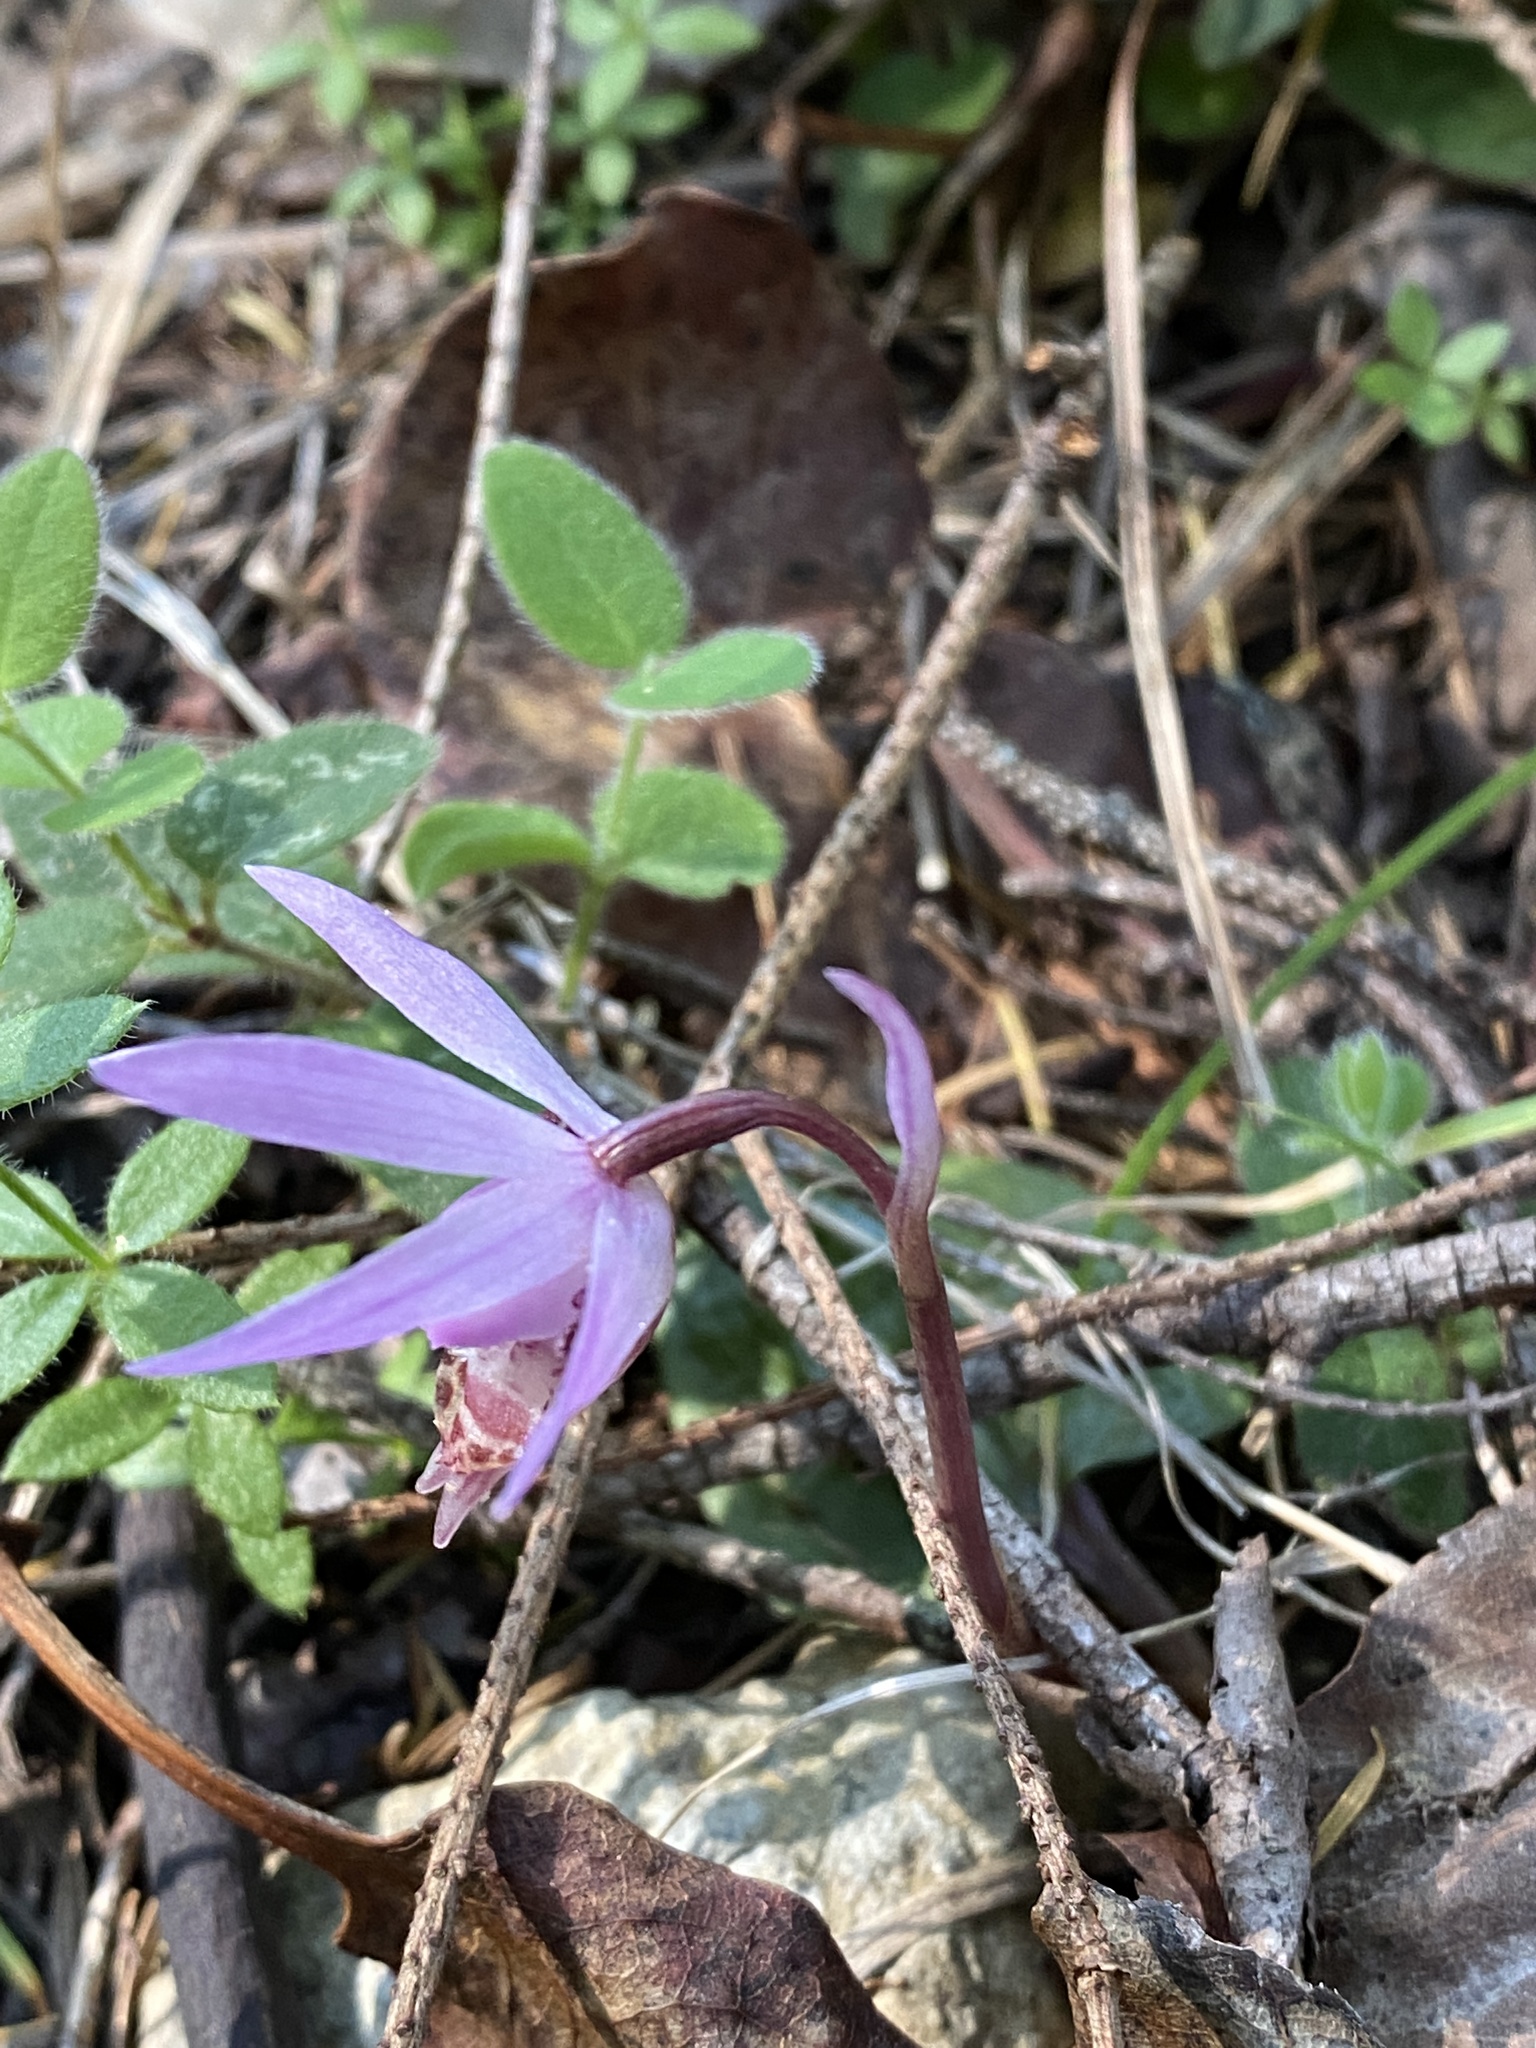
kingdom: Plantae
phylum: Tracheophyta
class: Liliopsida
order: Asparagales
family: Orchidaceae
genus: Calypso
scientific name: Calypso bulbosa
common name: Calypso
